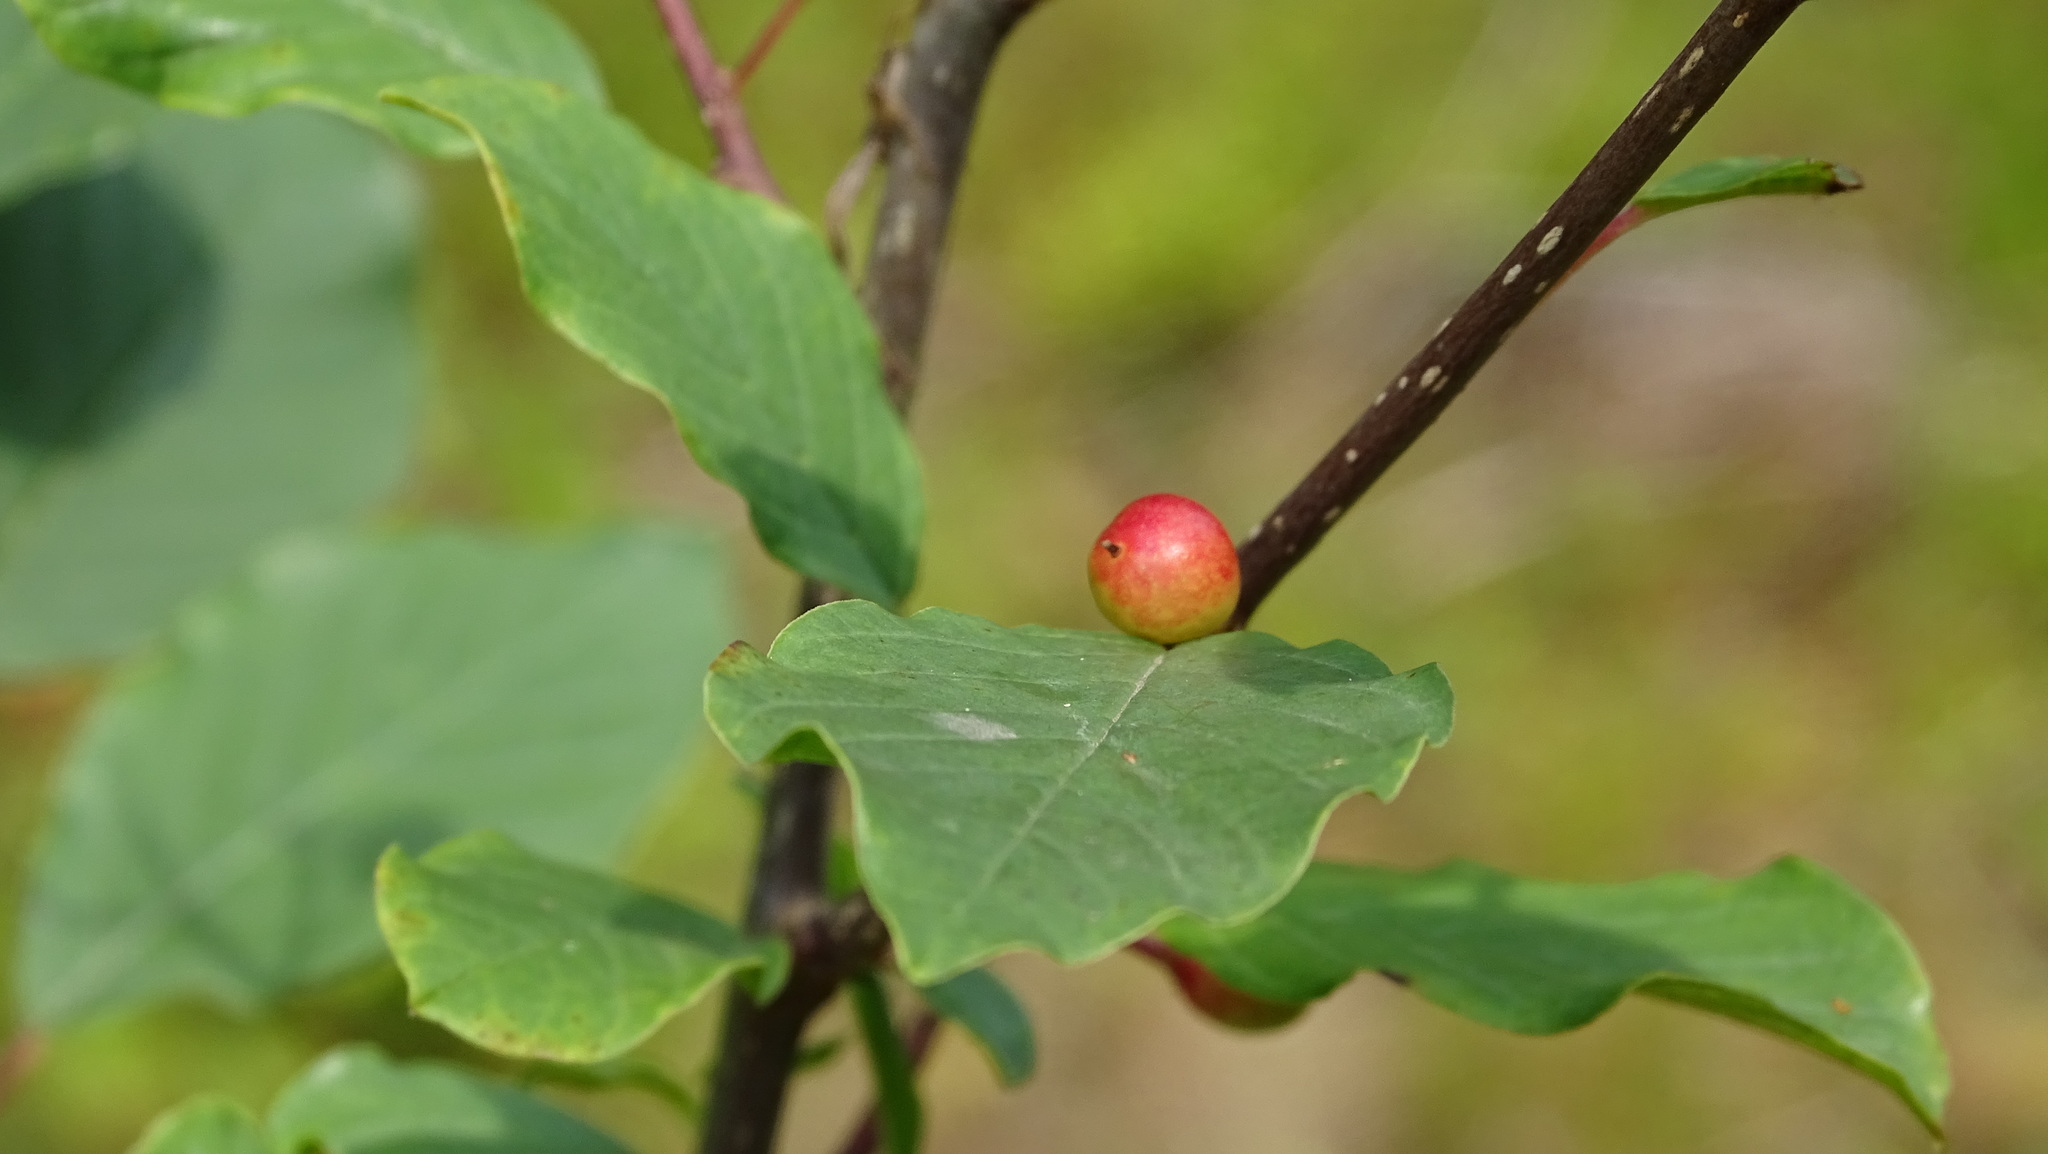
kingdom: Plantae
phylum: Tracheophyta
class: Magnoliopsida
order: Rosales
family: Rhamnaceae
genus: Frangula
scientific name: Frangula alnus
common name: Alder buckthorn
